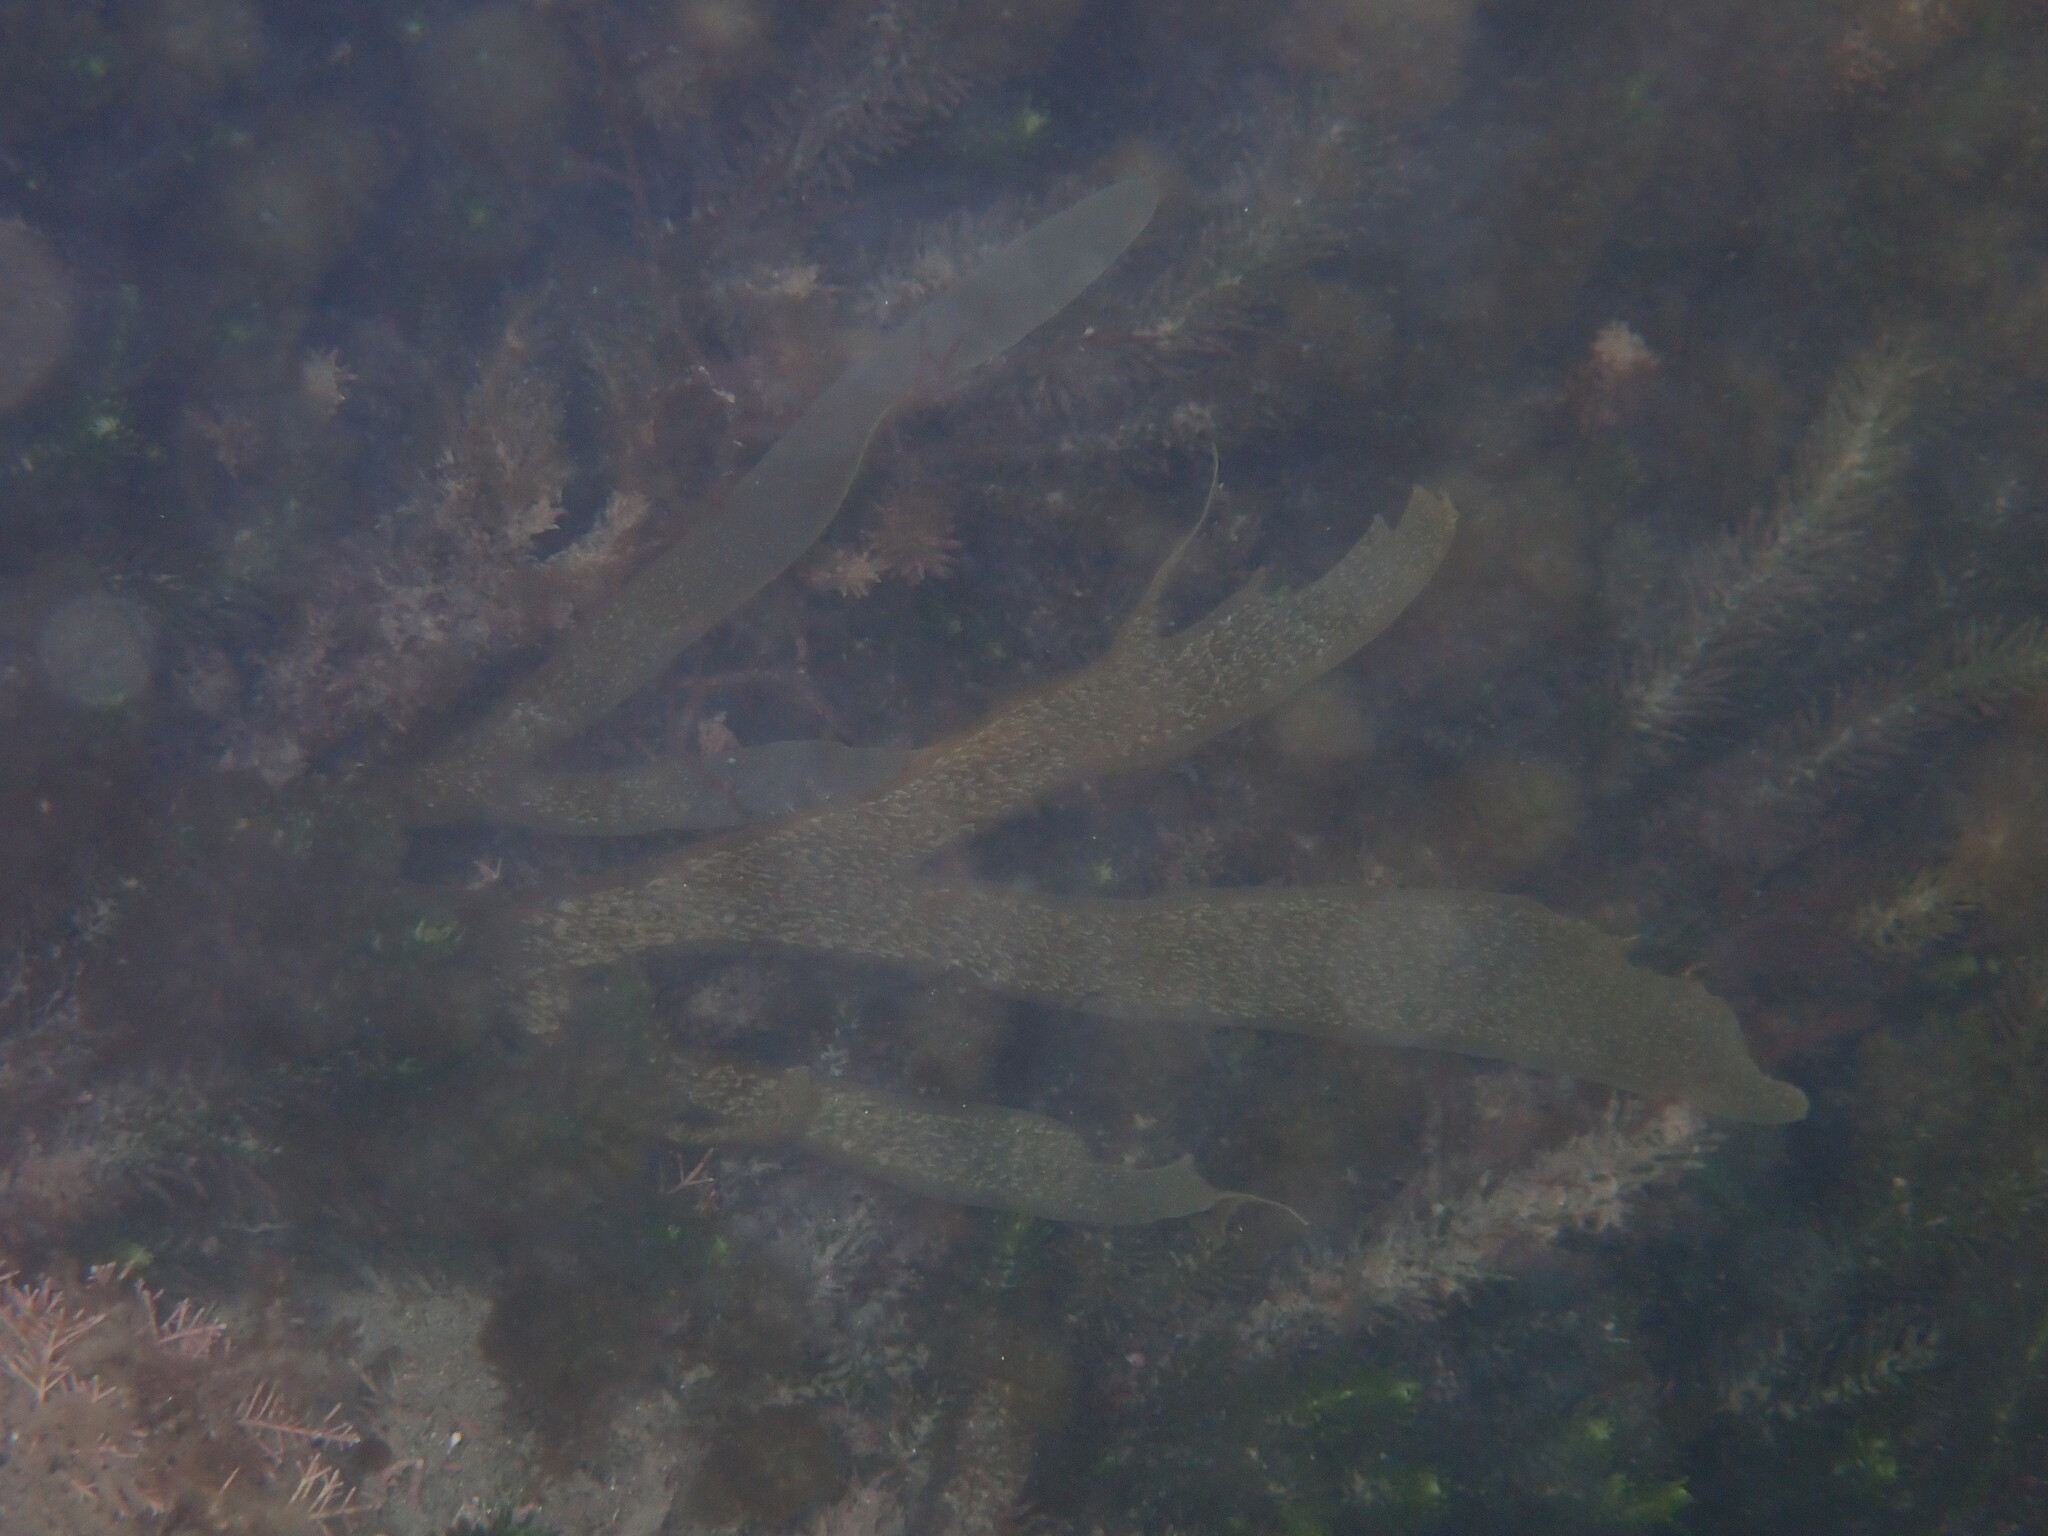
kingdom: Chromista
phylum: Ochrophyta
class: Phaeophyceae
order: Dictyotales
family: Dictyotaceae
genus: Dictyota
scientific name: Dictyota kunthii
